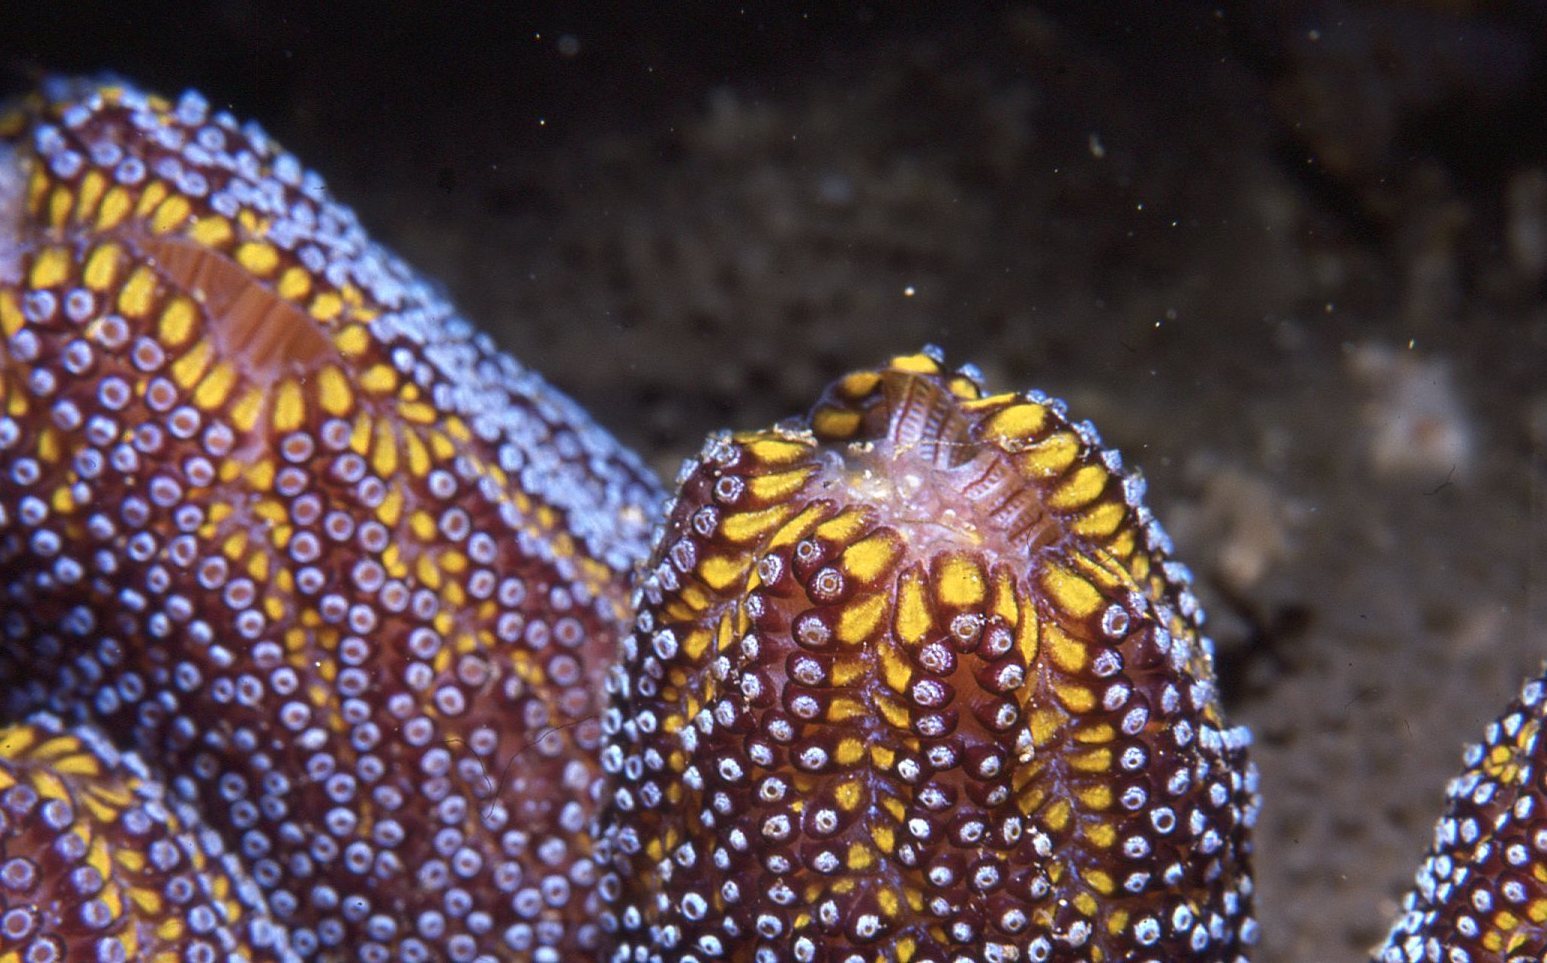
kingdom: Animalia
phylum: Chordata
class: Ascidiacea
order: Stolidobranchia
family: Styelidae
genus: Botrylloides
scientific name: Botrylloides magnicoecus
